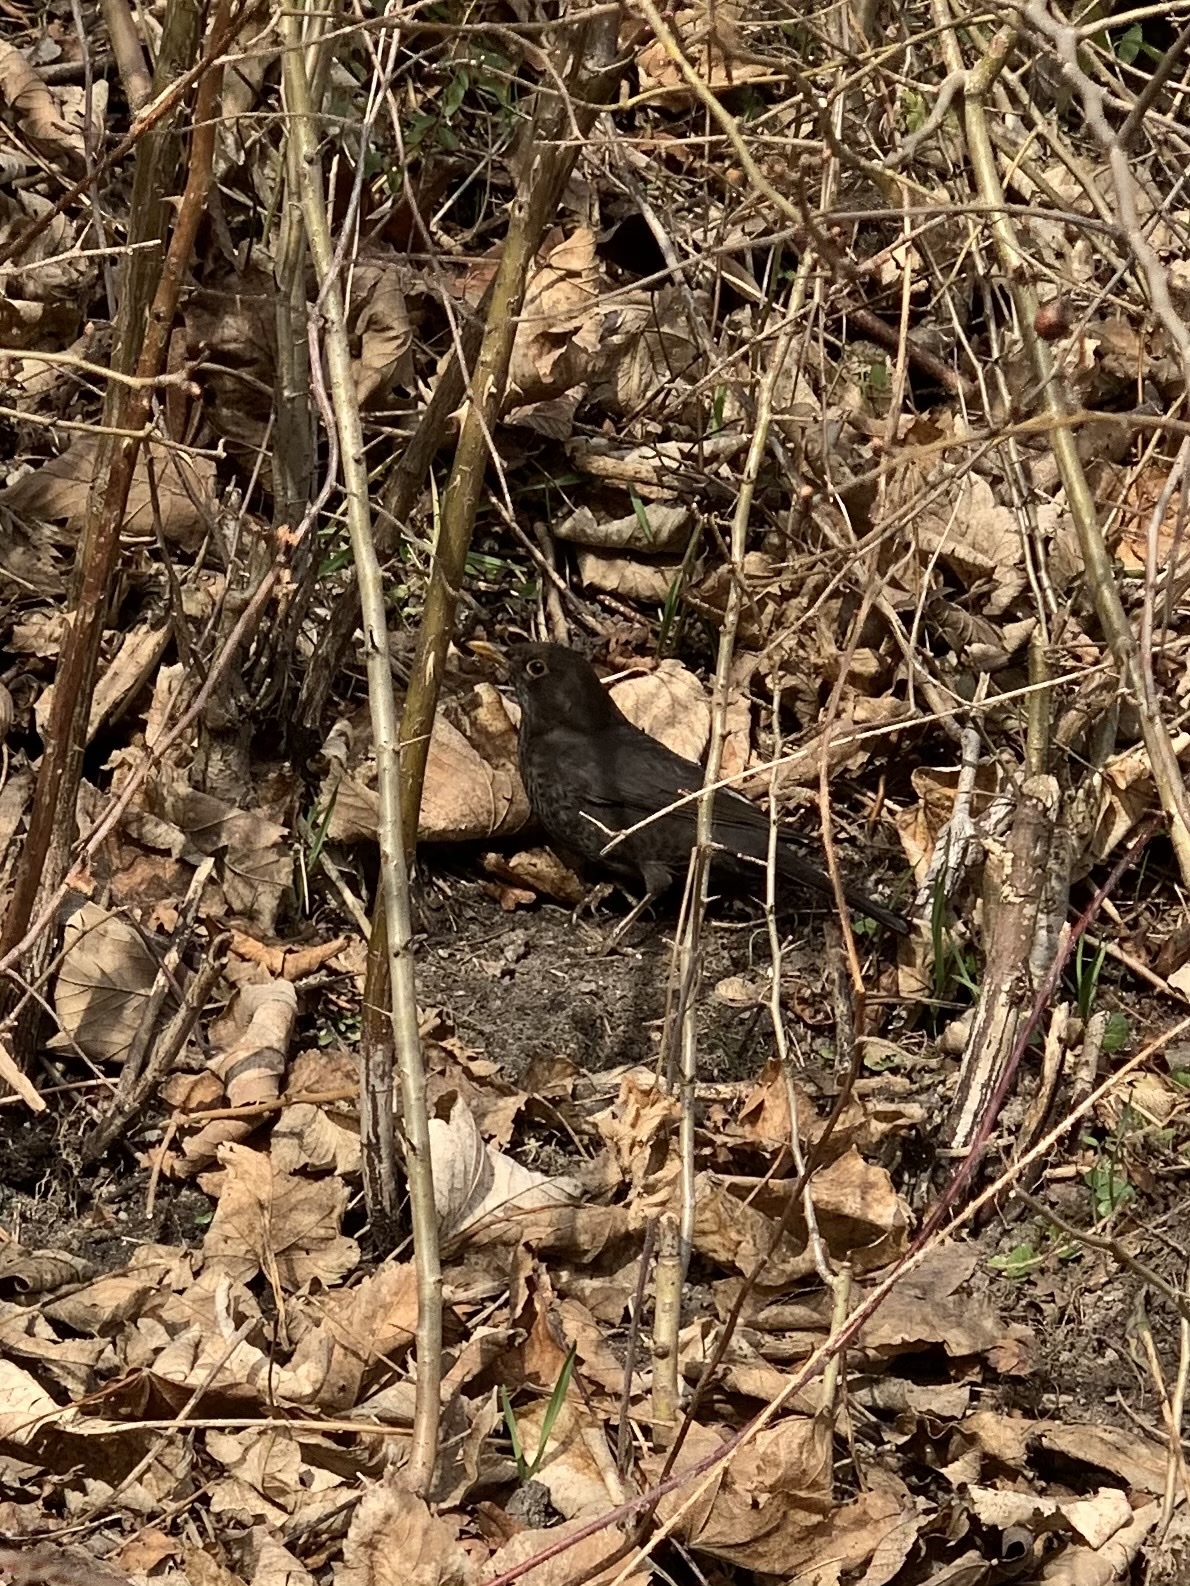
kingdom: Animalia
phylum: Chordata
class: Aves
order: Passeriformes
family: Turdidae
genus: Turdus
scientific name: Turdus merula
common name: Common blackbird
